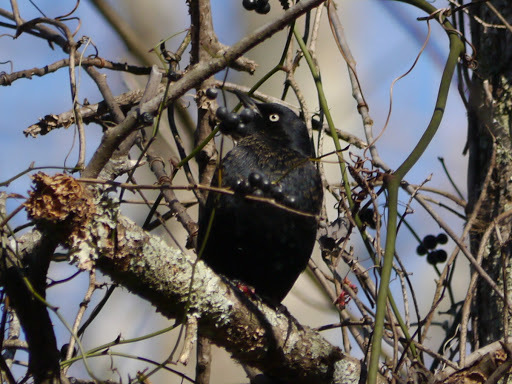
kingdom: Animalia
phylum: Chordata
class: Aves
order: Passeriformes
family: Icteridae
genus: Euphagus
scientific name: Euphagus carolinus
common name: Rusty blackbird
